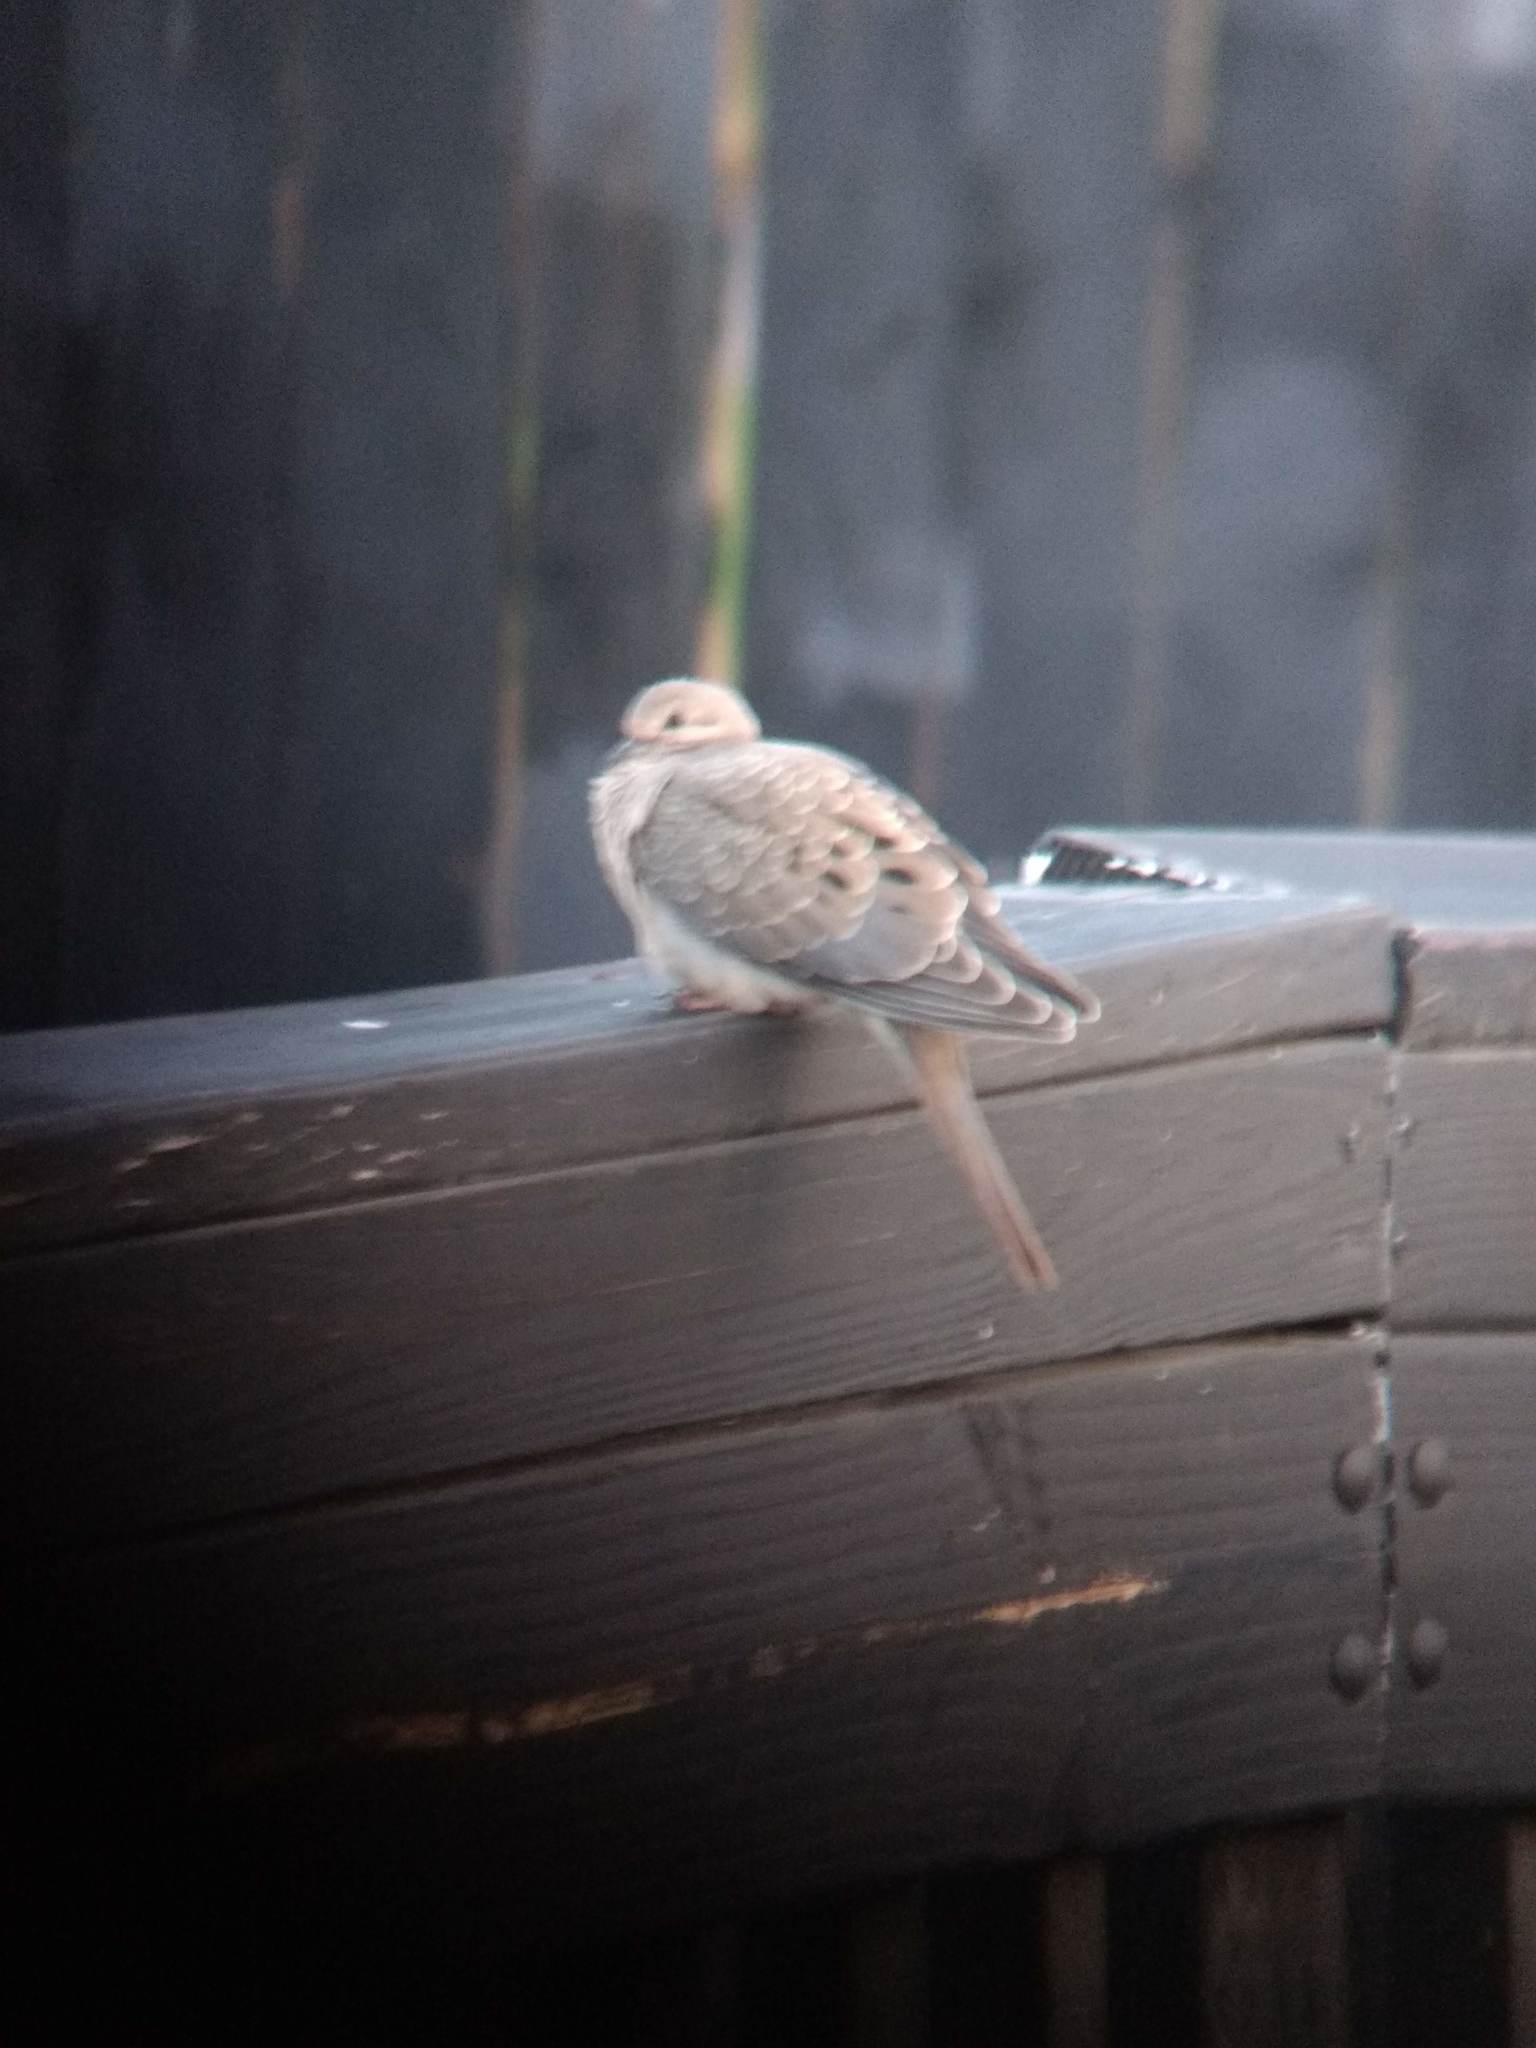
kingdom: Animalia
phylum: Chordata
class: Aves
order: Columbiformes
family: Columbidae
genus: Zenaida
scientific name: Zenaida macroura
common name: Mourning dove
